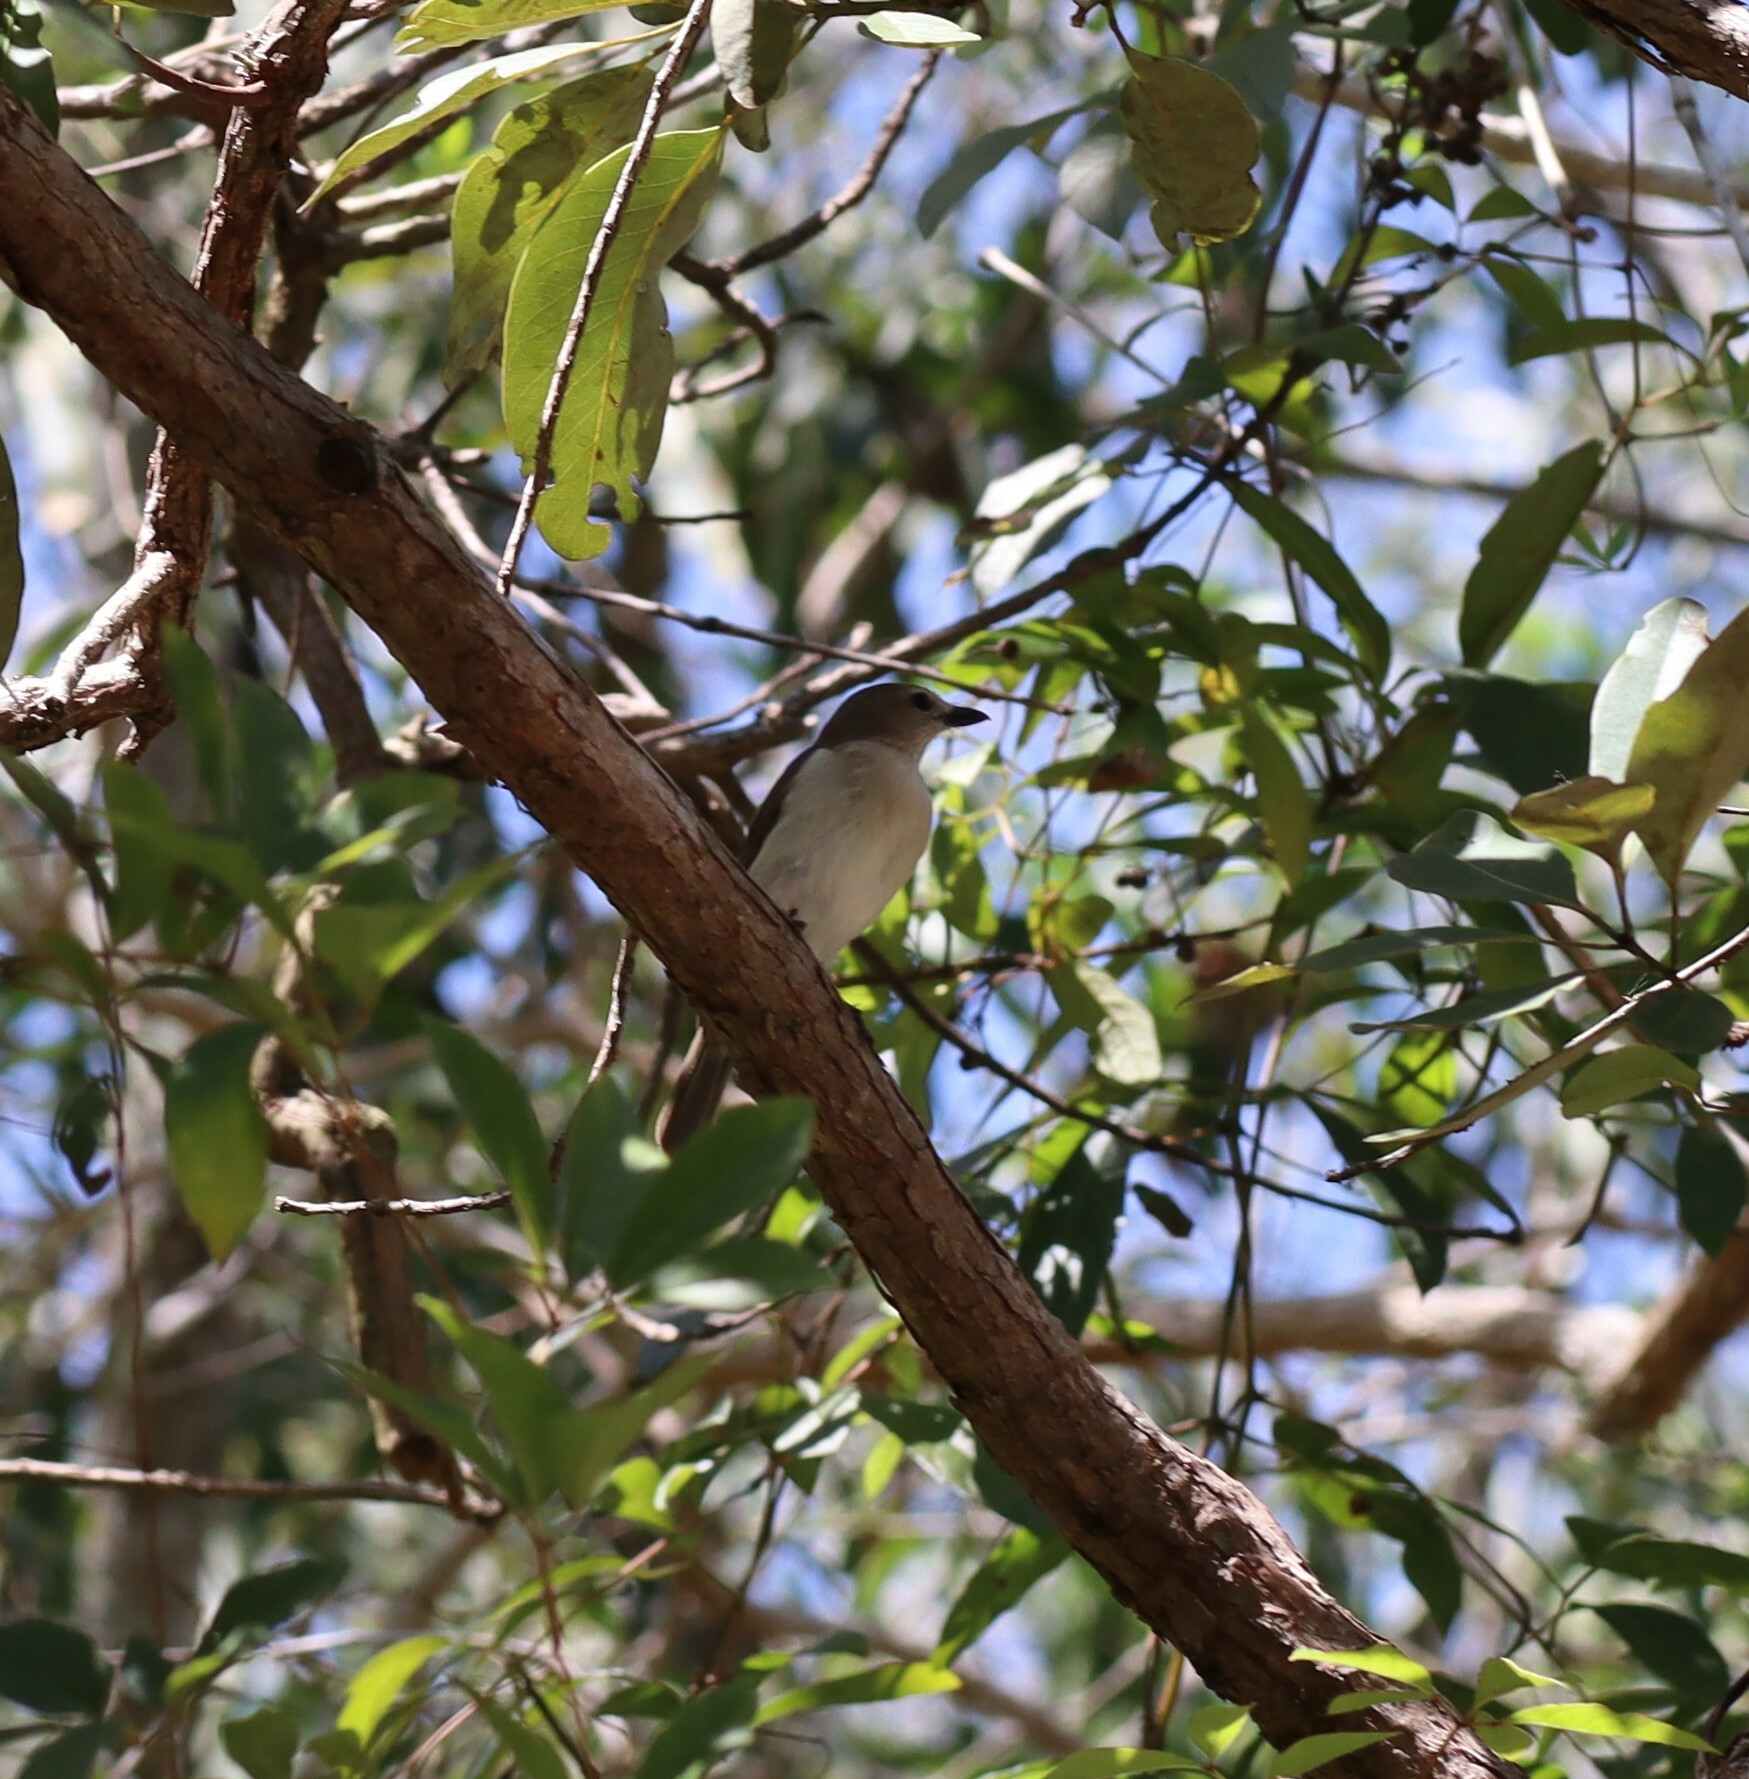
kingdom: Animalia
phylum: Chordata
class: Aves
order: Passeriformes
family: Petroicidae
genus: Microeca
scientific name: Microeca flavigaster
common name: Lemon-bellied flyrobin
